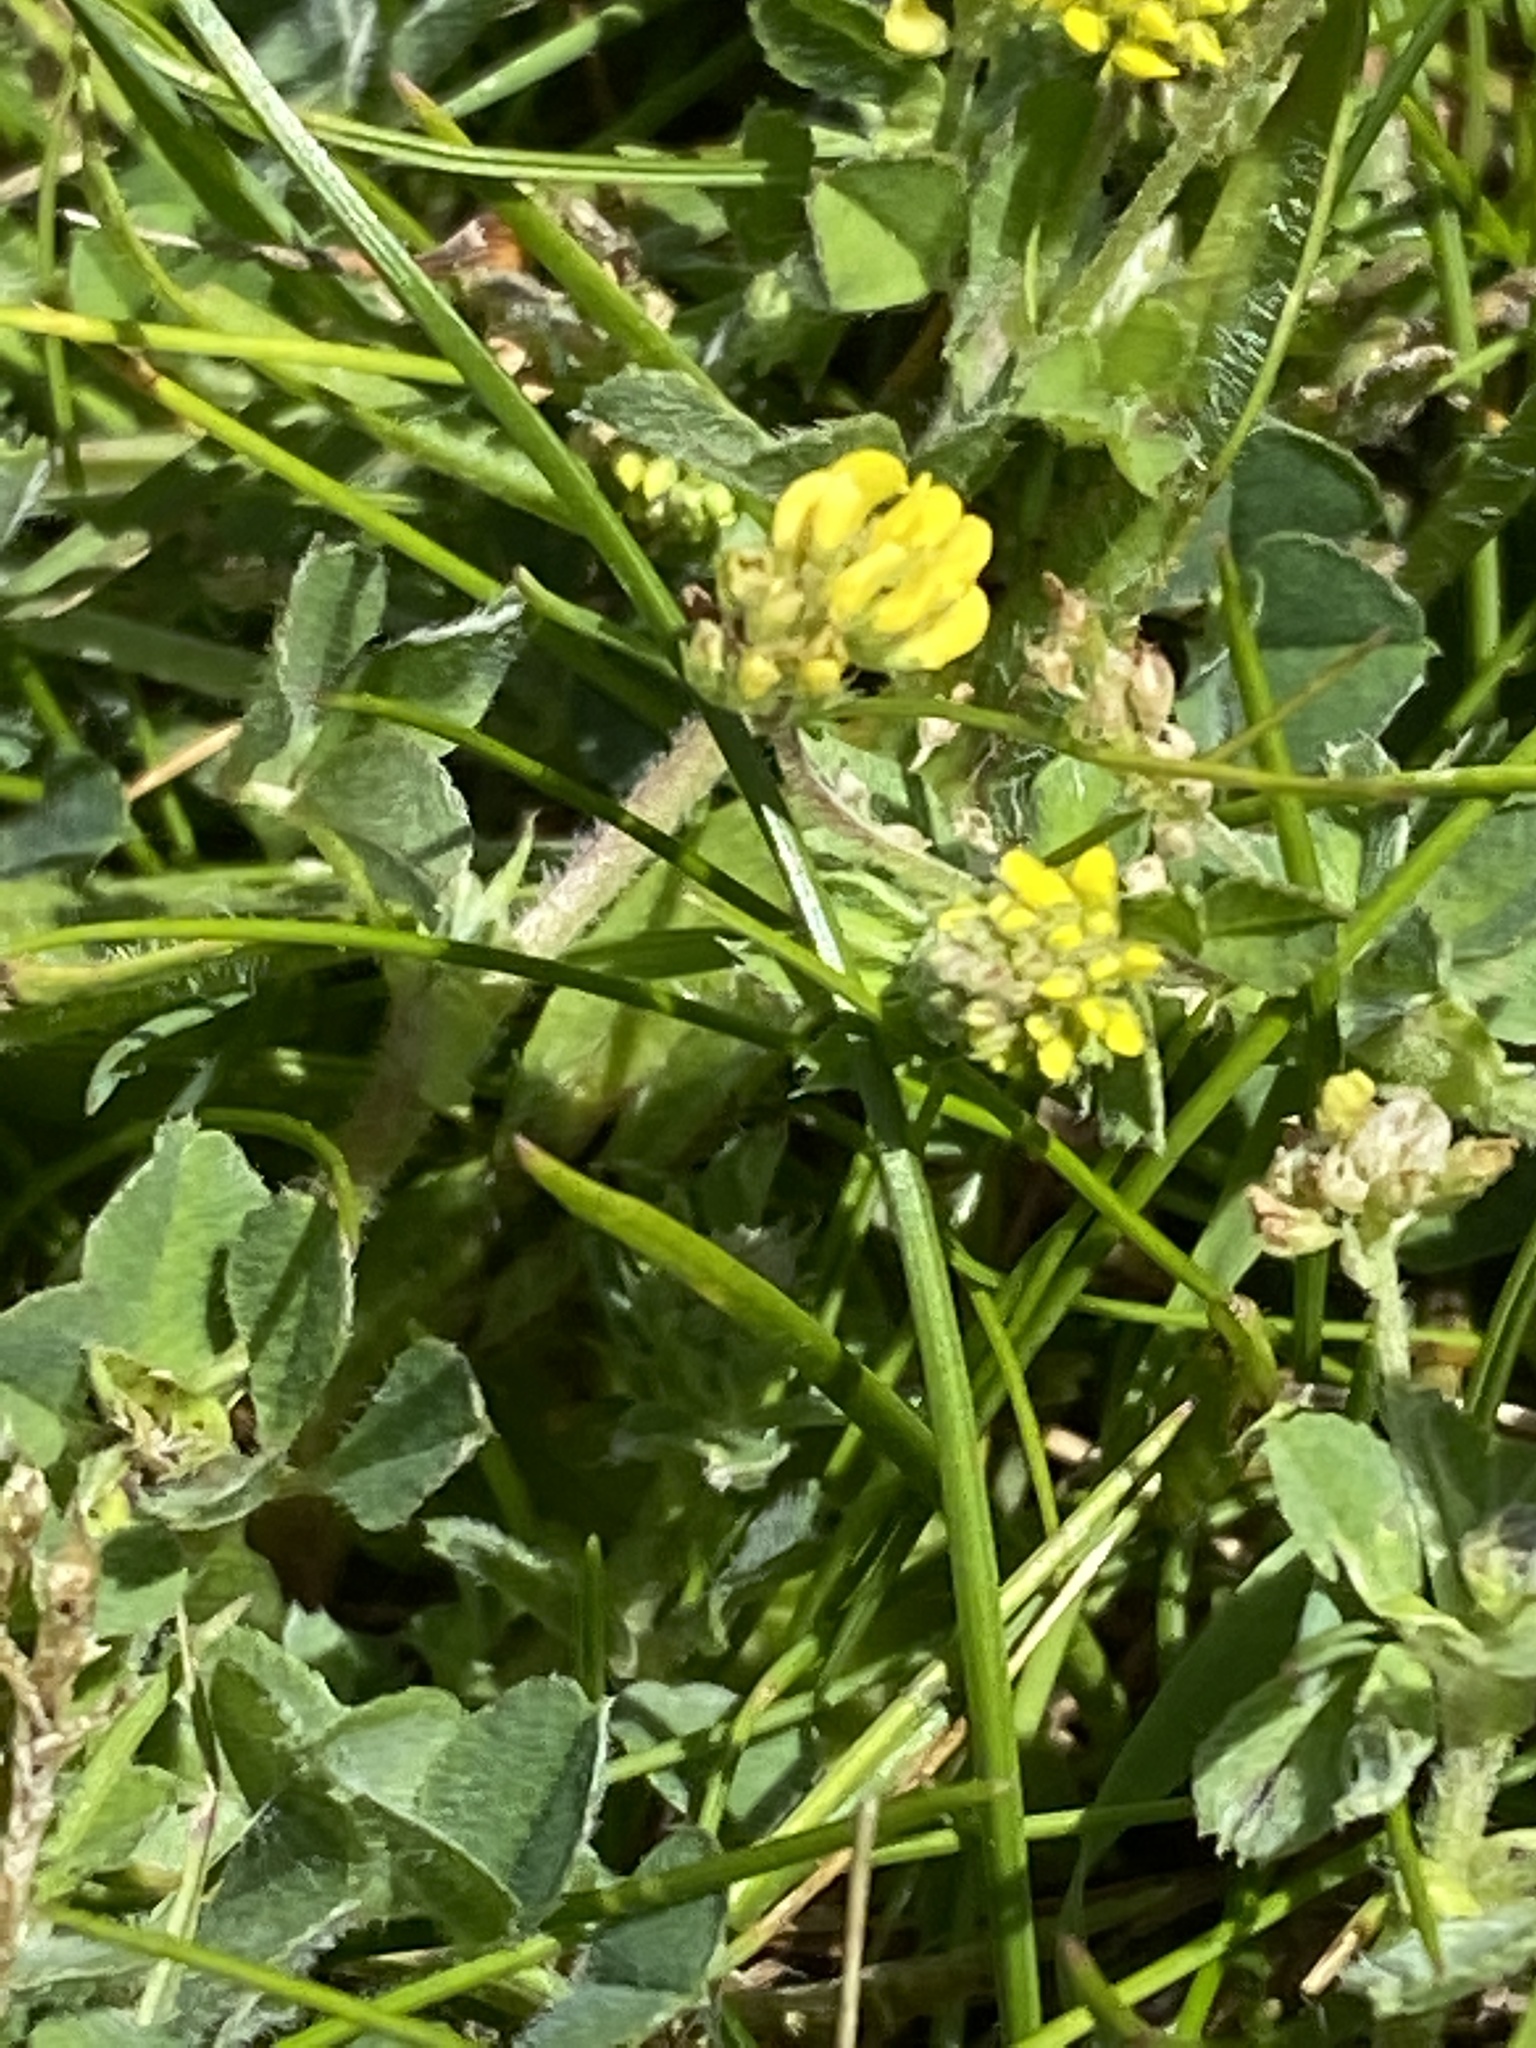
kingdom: Plantae
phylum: Tracheophyta
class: Magnoliopsida
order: Fabales
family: Fabaceae
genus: Medicago
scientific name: Medicago lupulina
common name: Black medick
